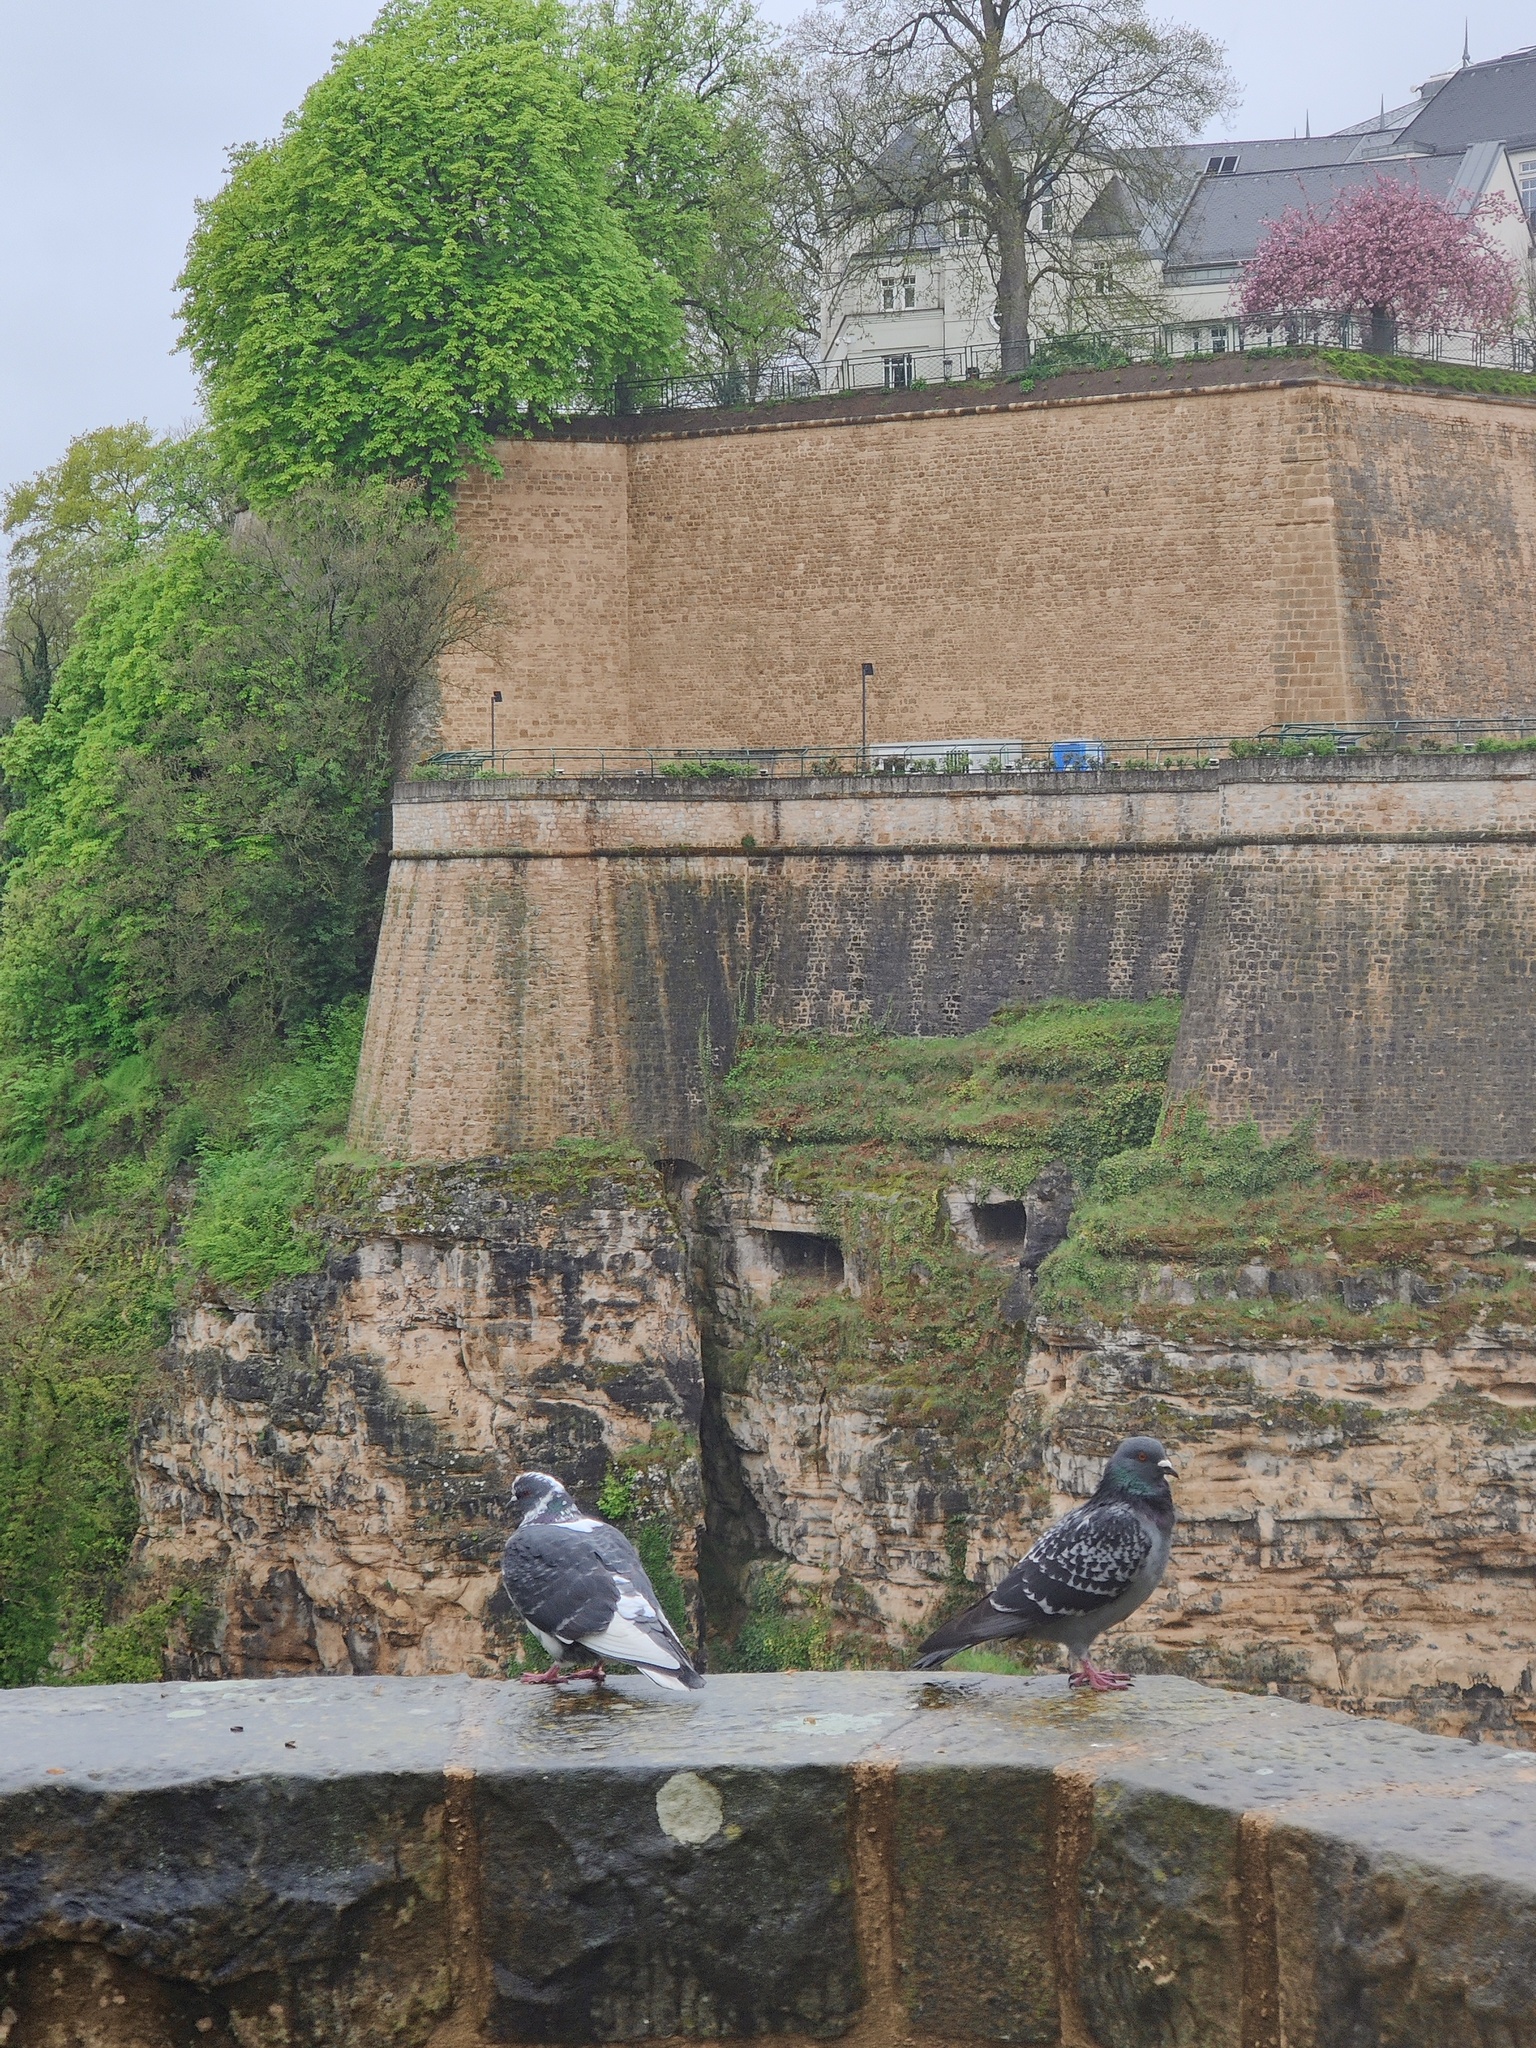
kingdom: Animalia
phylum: Chordata
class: Aves
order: Columbiformes
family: Columbidae
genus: Columba
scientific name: Columba livia
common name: Rock pigeon
